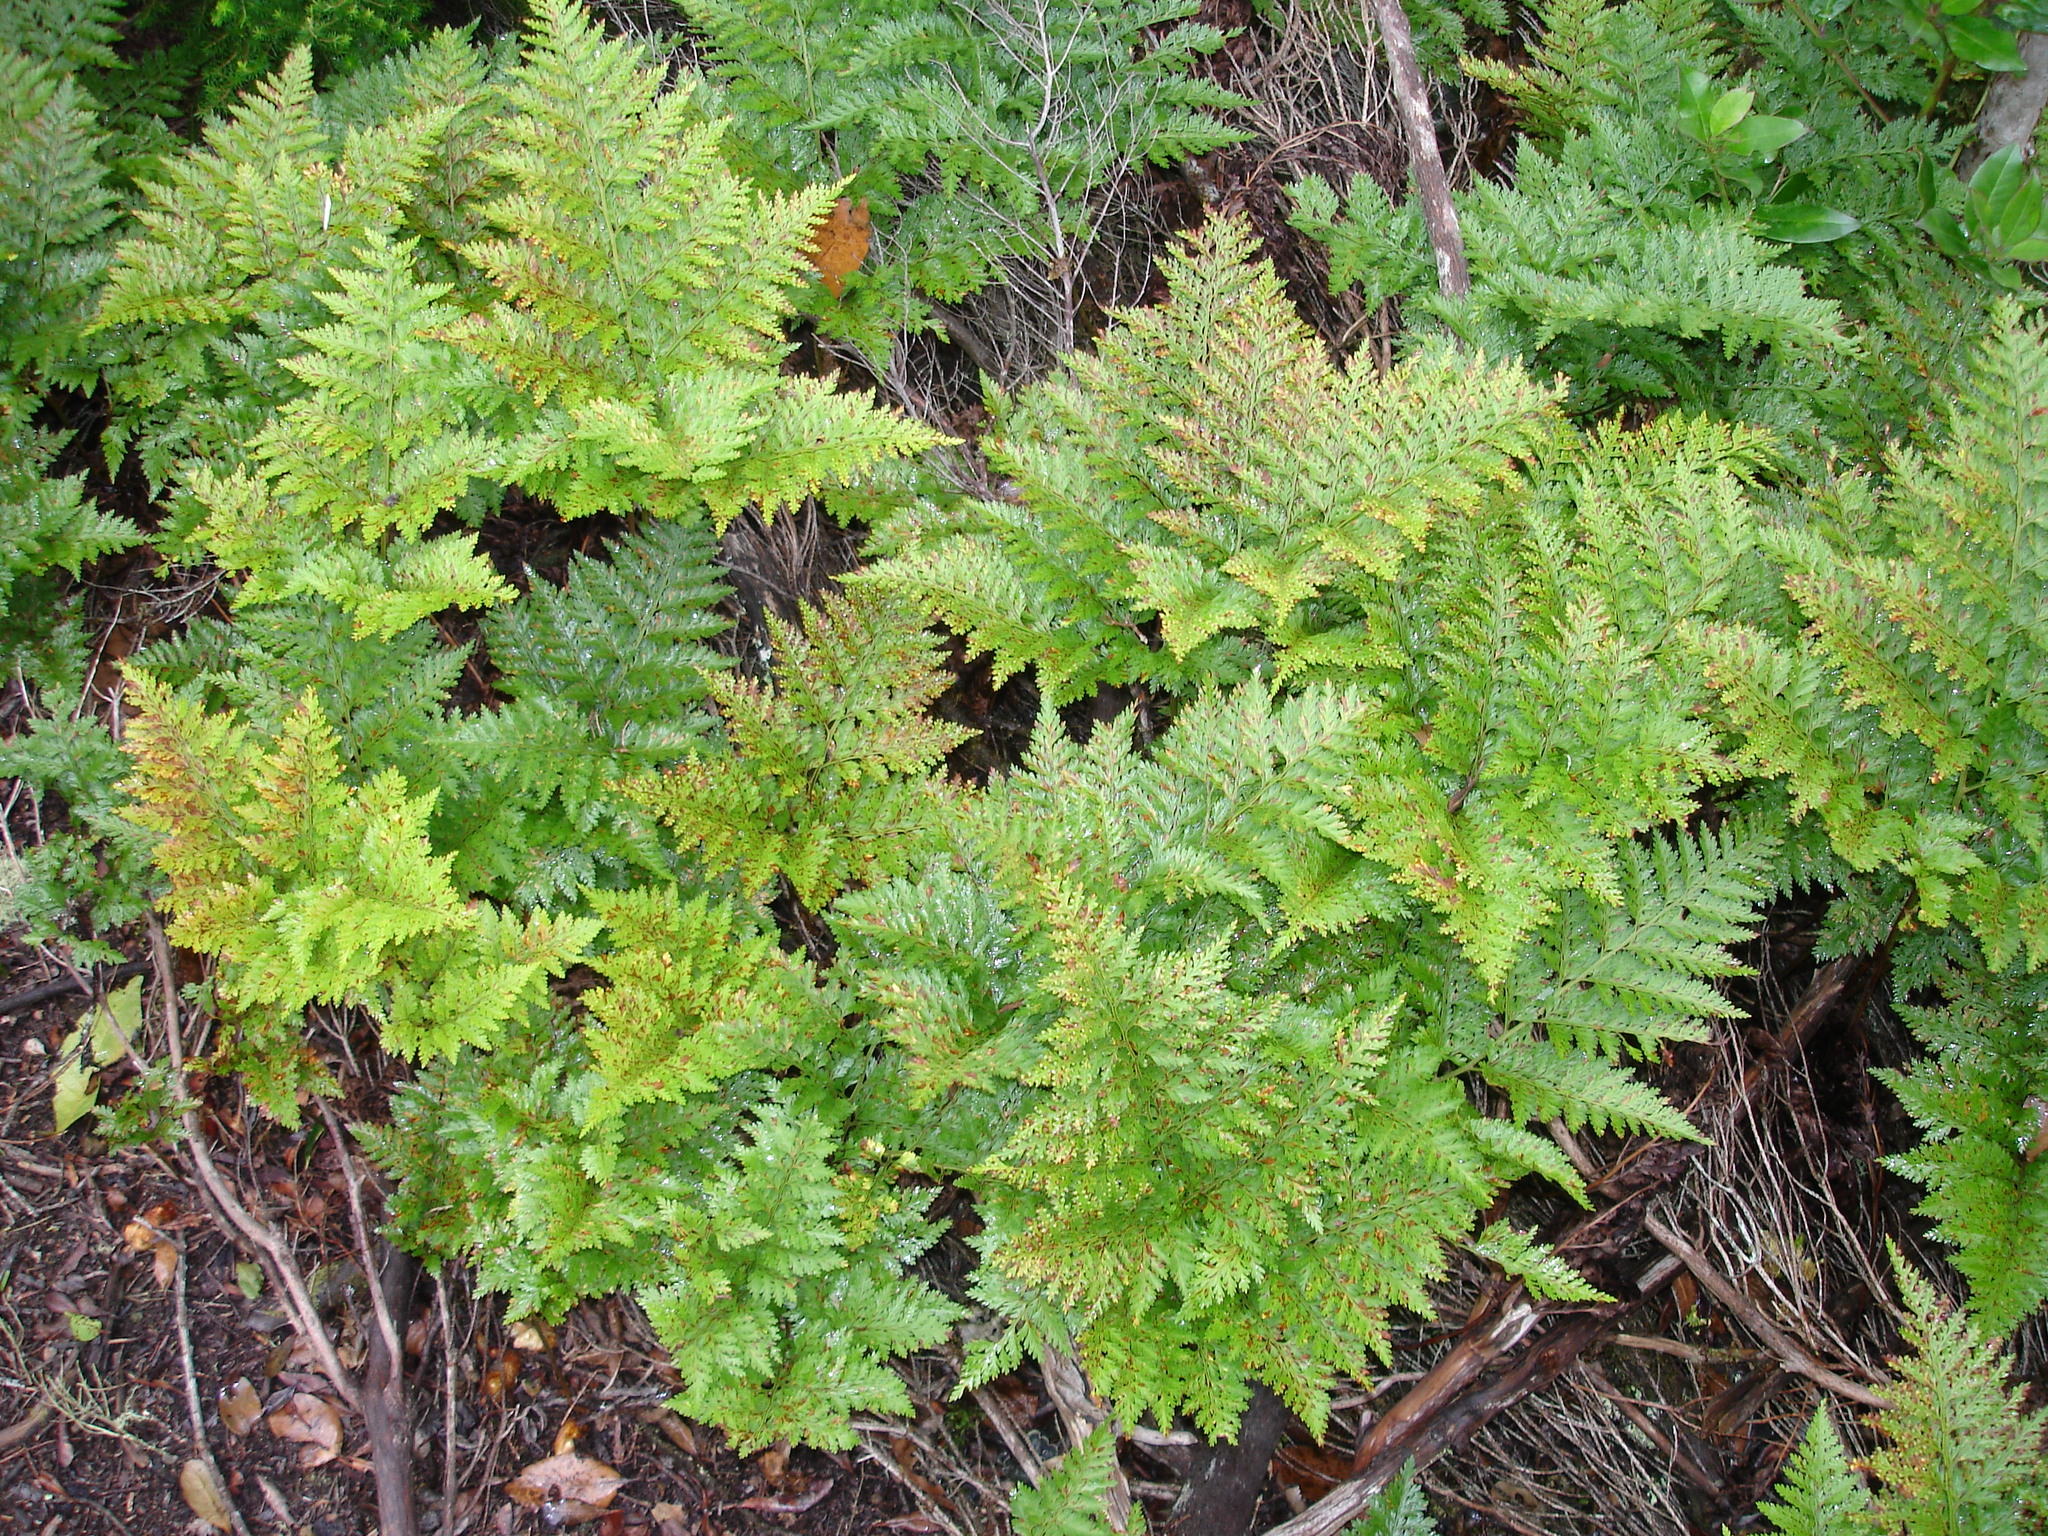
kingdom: Plantae
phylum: Tracheophyta
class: Polypodiopsida
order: Polypodiales
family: Davalliaceae
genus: Davallia
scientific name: Davallia canariensis
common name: Hare's-foot fern
